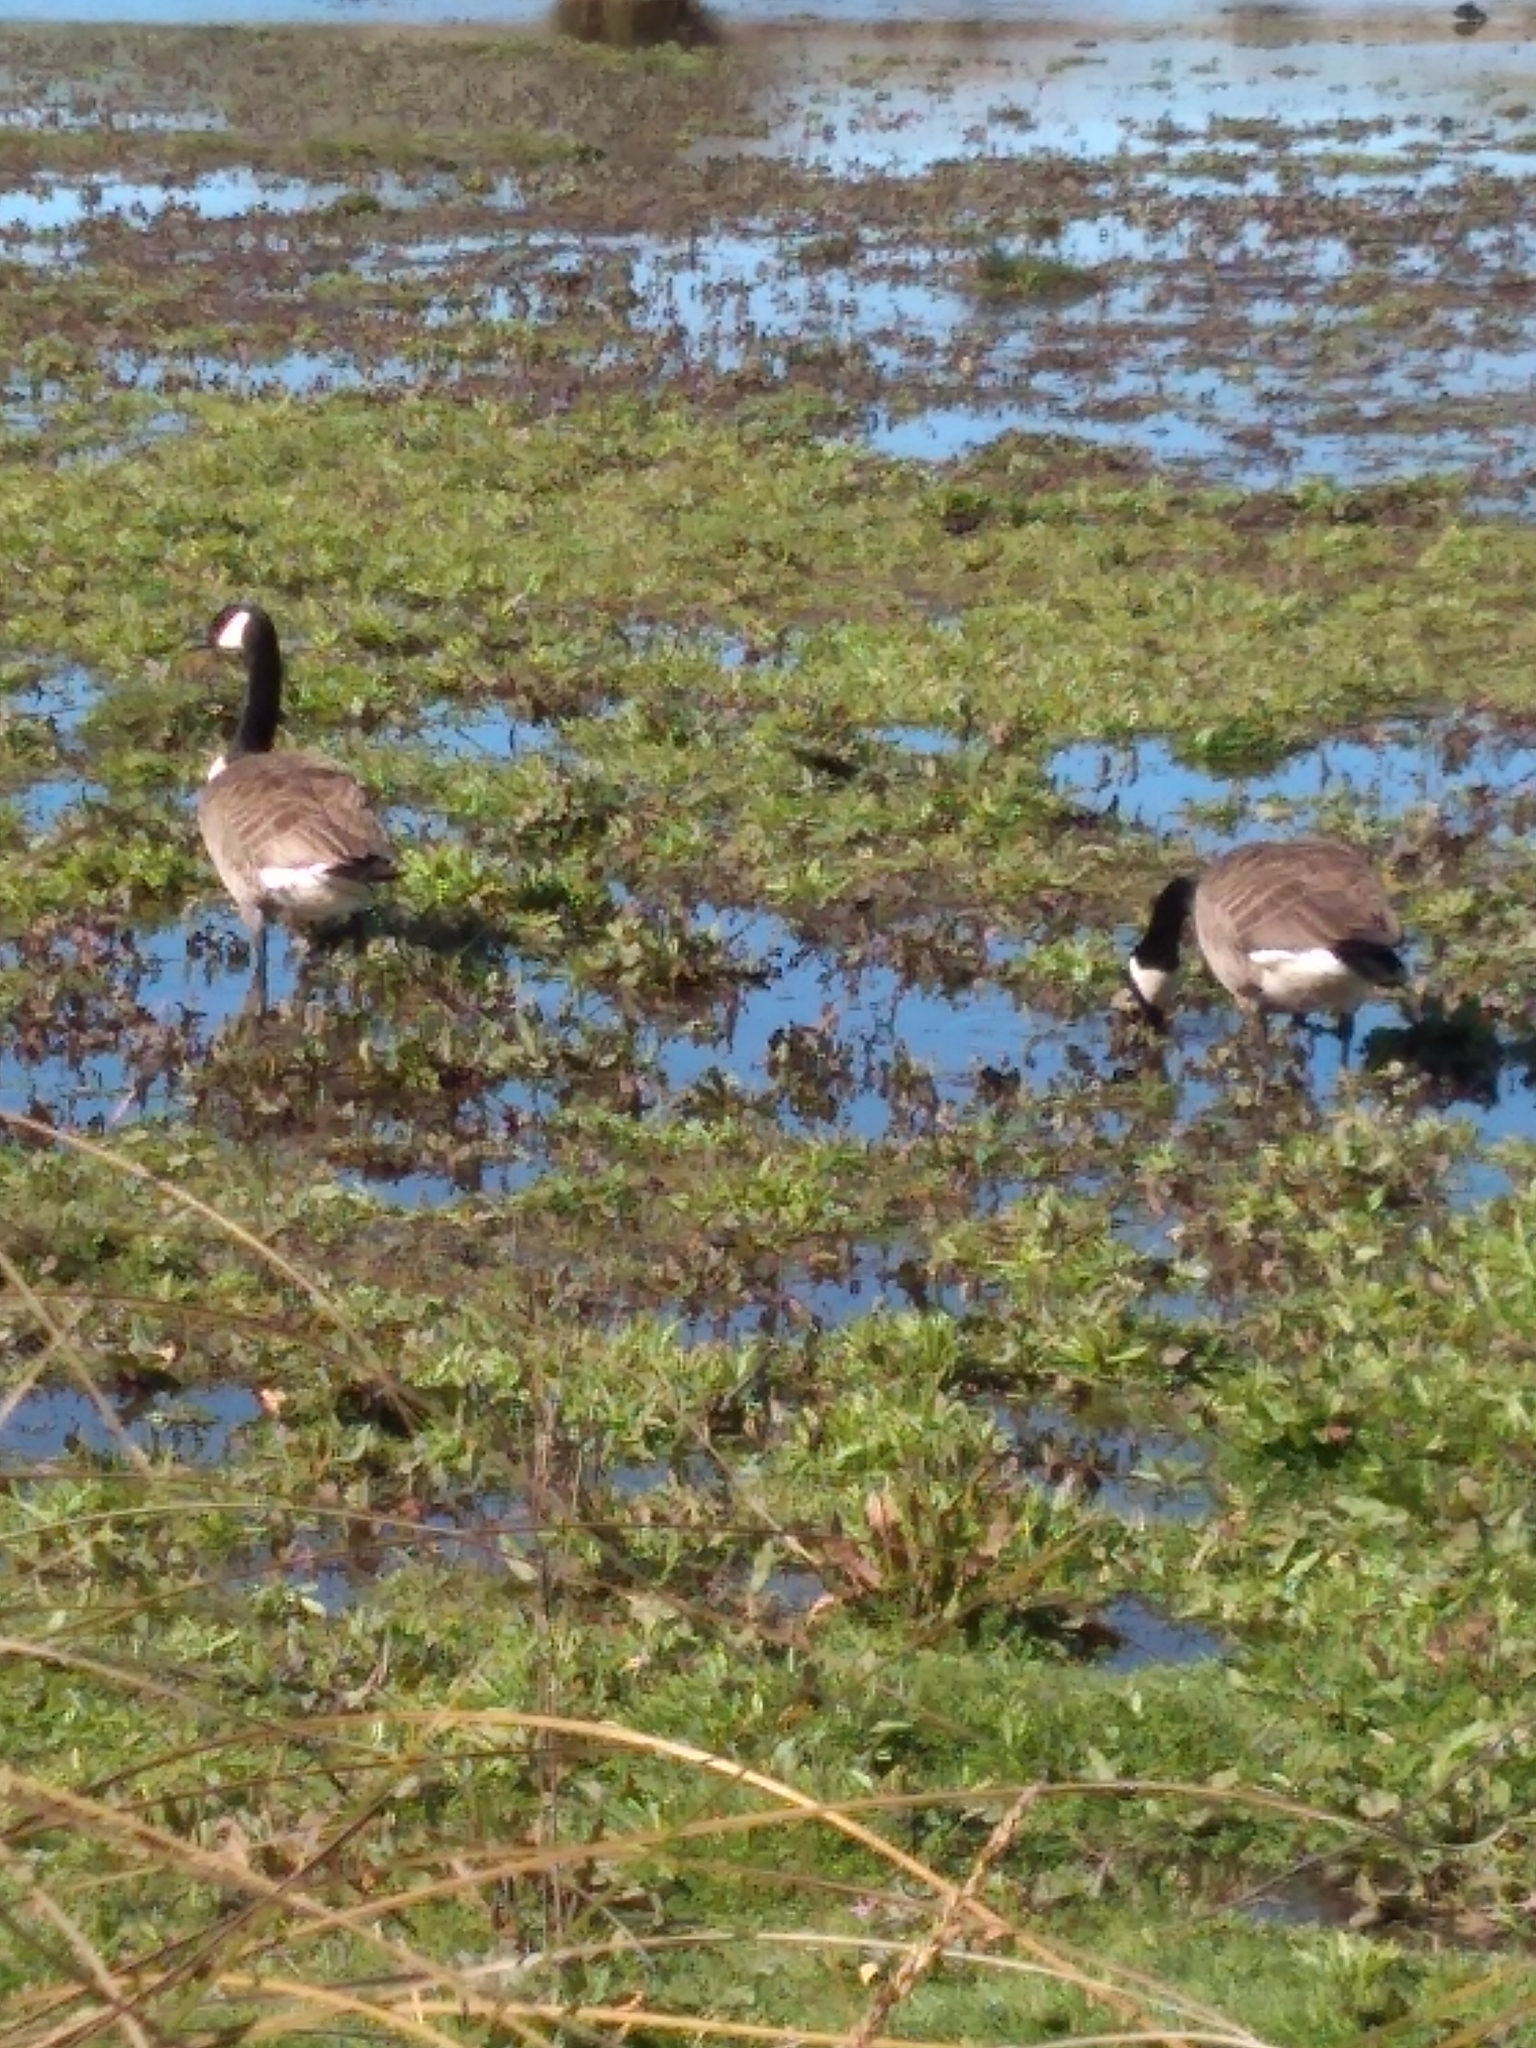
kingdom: Animalia
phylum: Chordata
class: Aves
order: Anseriformes
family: Anatidae
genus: Branta
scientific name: Branta canadensis
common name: Canada goose
